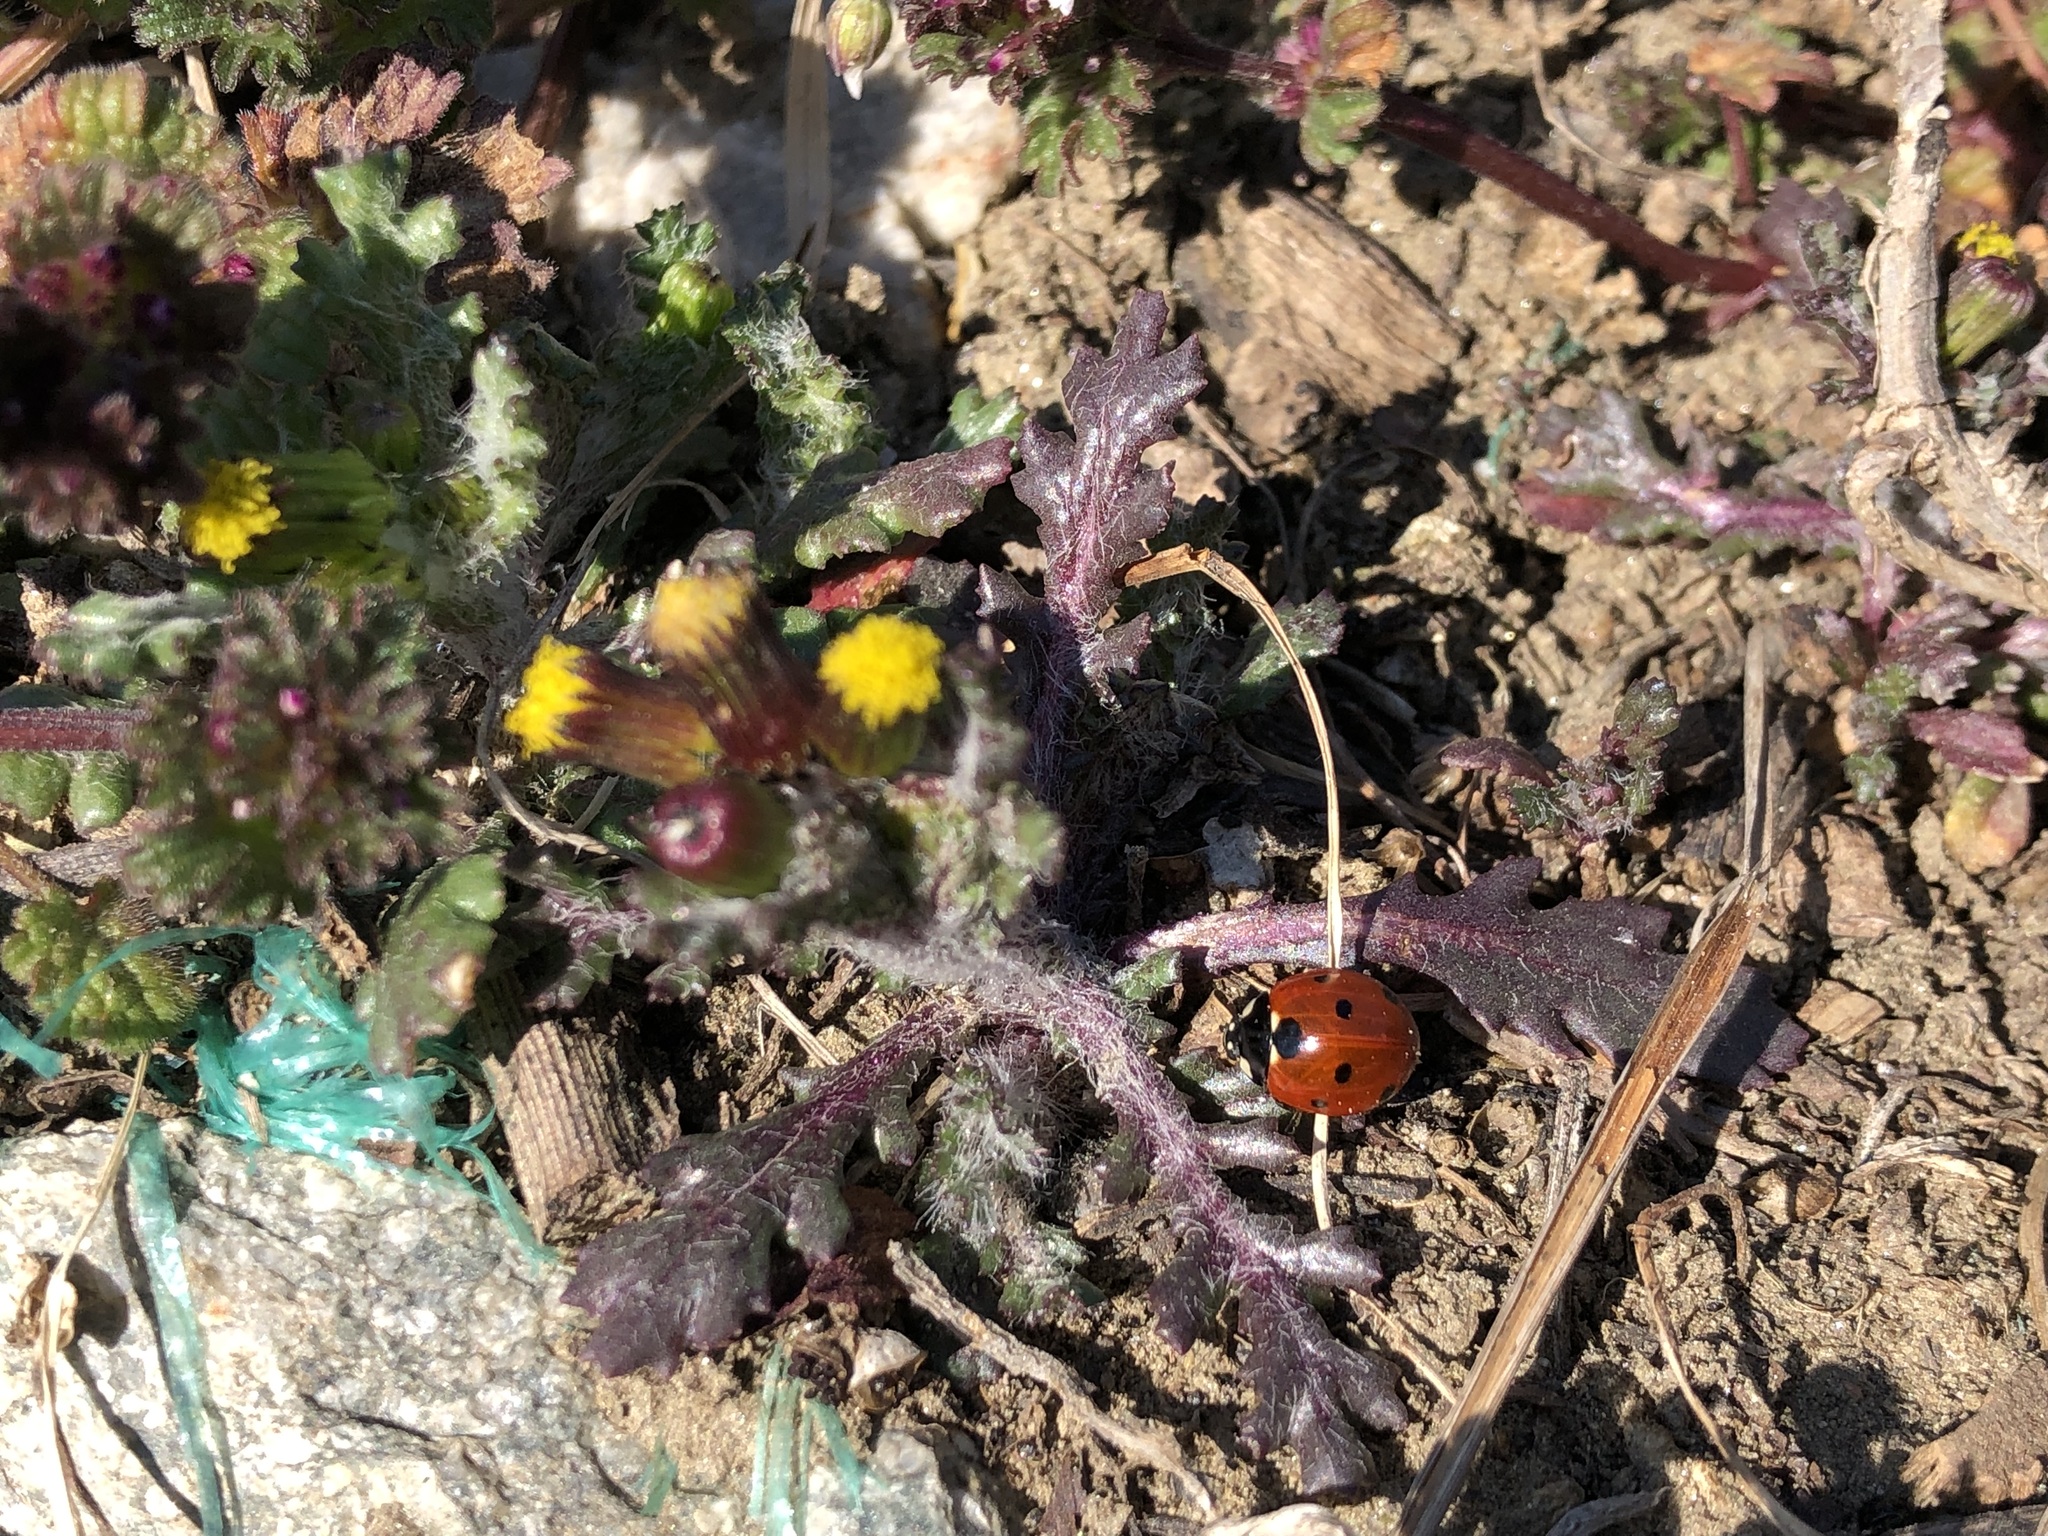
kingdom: Animalia
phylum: Arthropoda
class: Insecta
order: Coleoptera
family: Coccinellidae
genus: Coccinella
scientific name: Coccinella septempunctata
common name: Sevenspotted lady beetle
